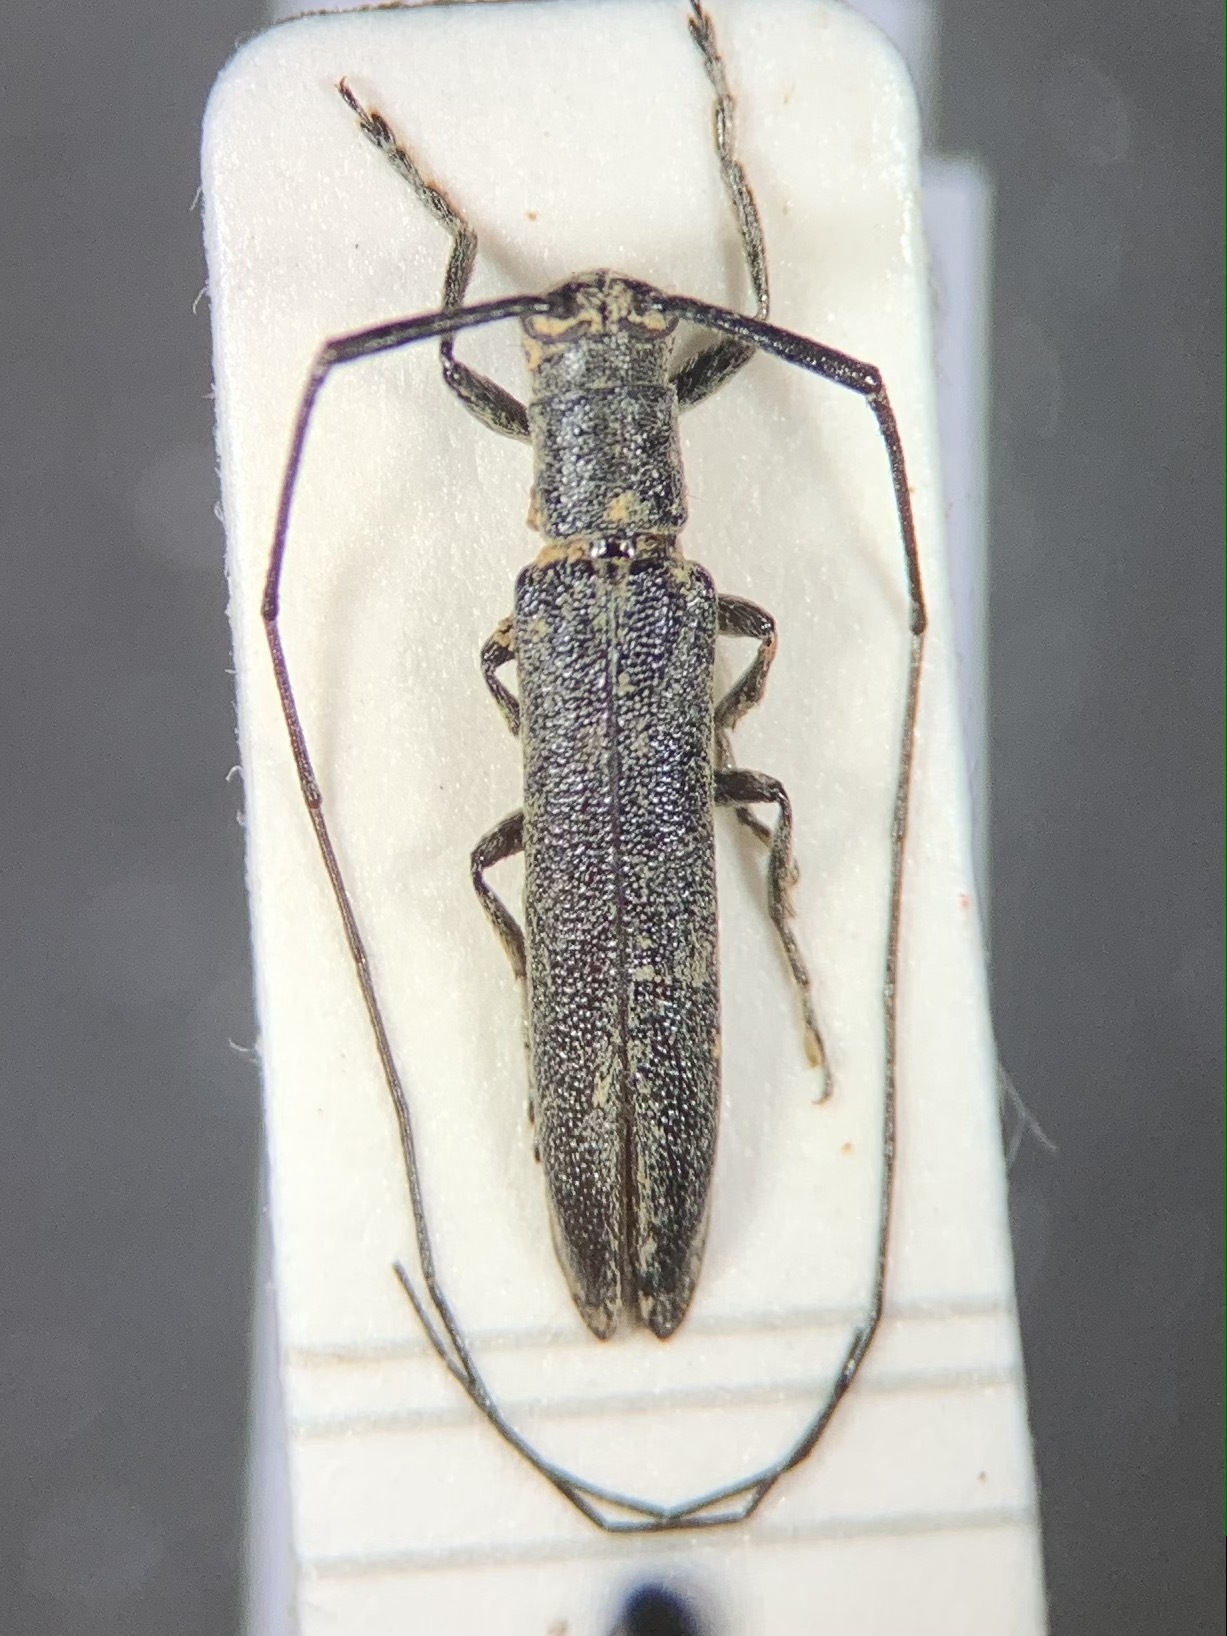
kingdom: Animalia
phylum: Arthropoda
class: Insecta
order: Coleoptera
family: Cerambycidae
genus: Calamobius
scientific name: Calamobius filum
